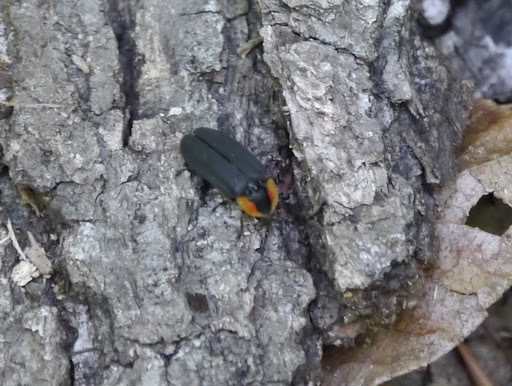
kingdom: Animalia
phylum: Arthropoda
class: Insecta
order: Coleoptera
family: Lampyridae
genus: Lucidota
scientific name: Lucidota atra
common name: Black firefly
